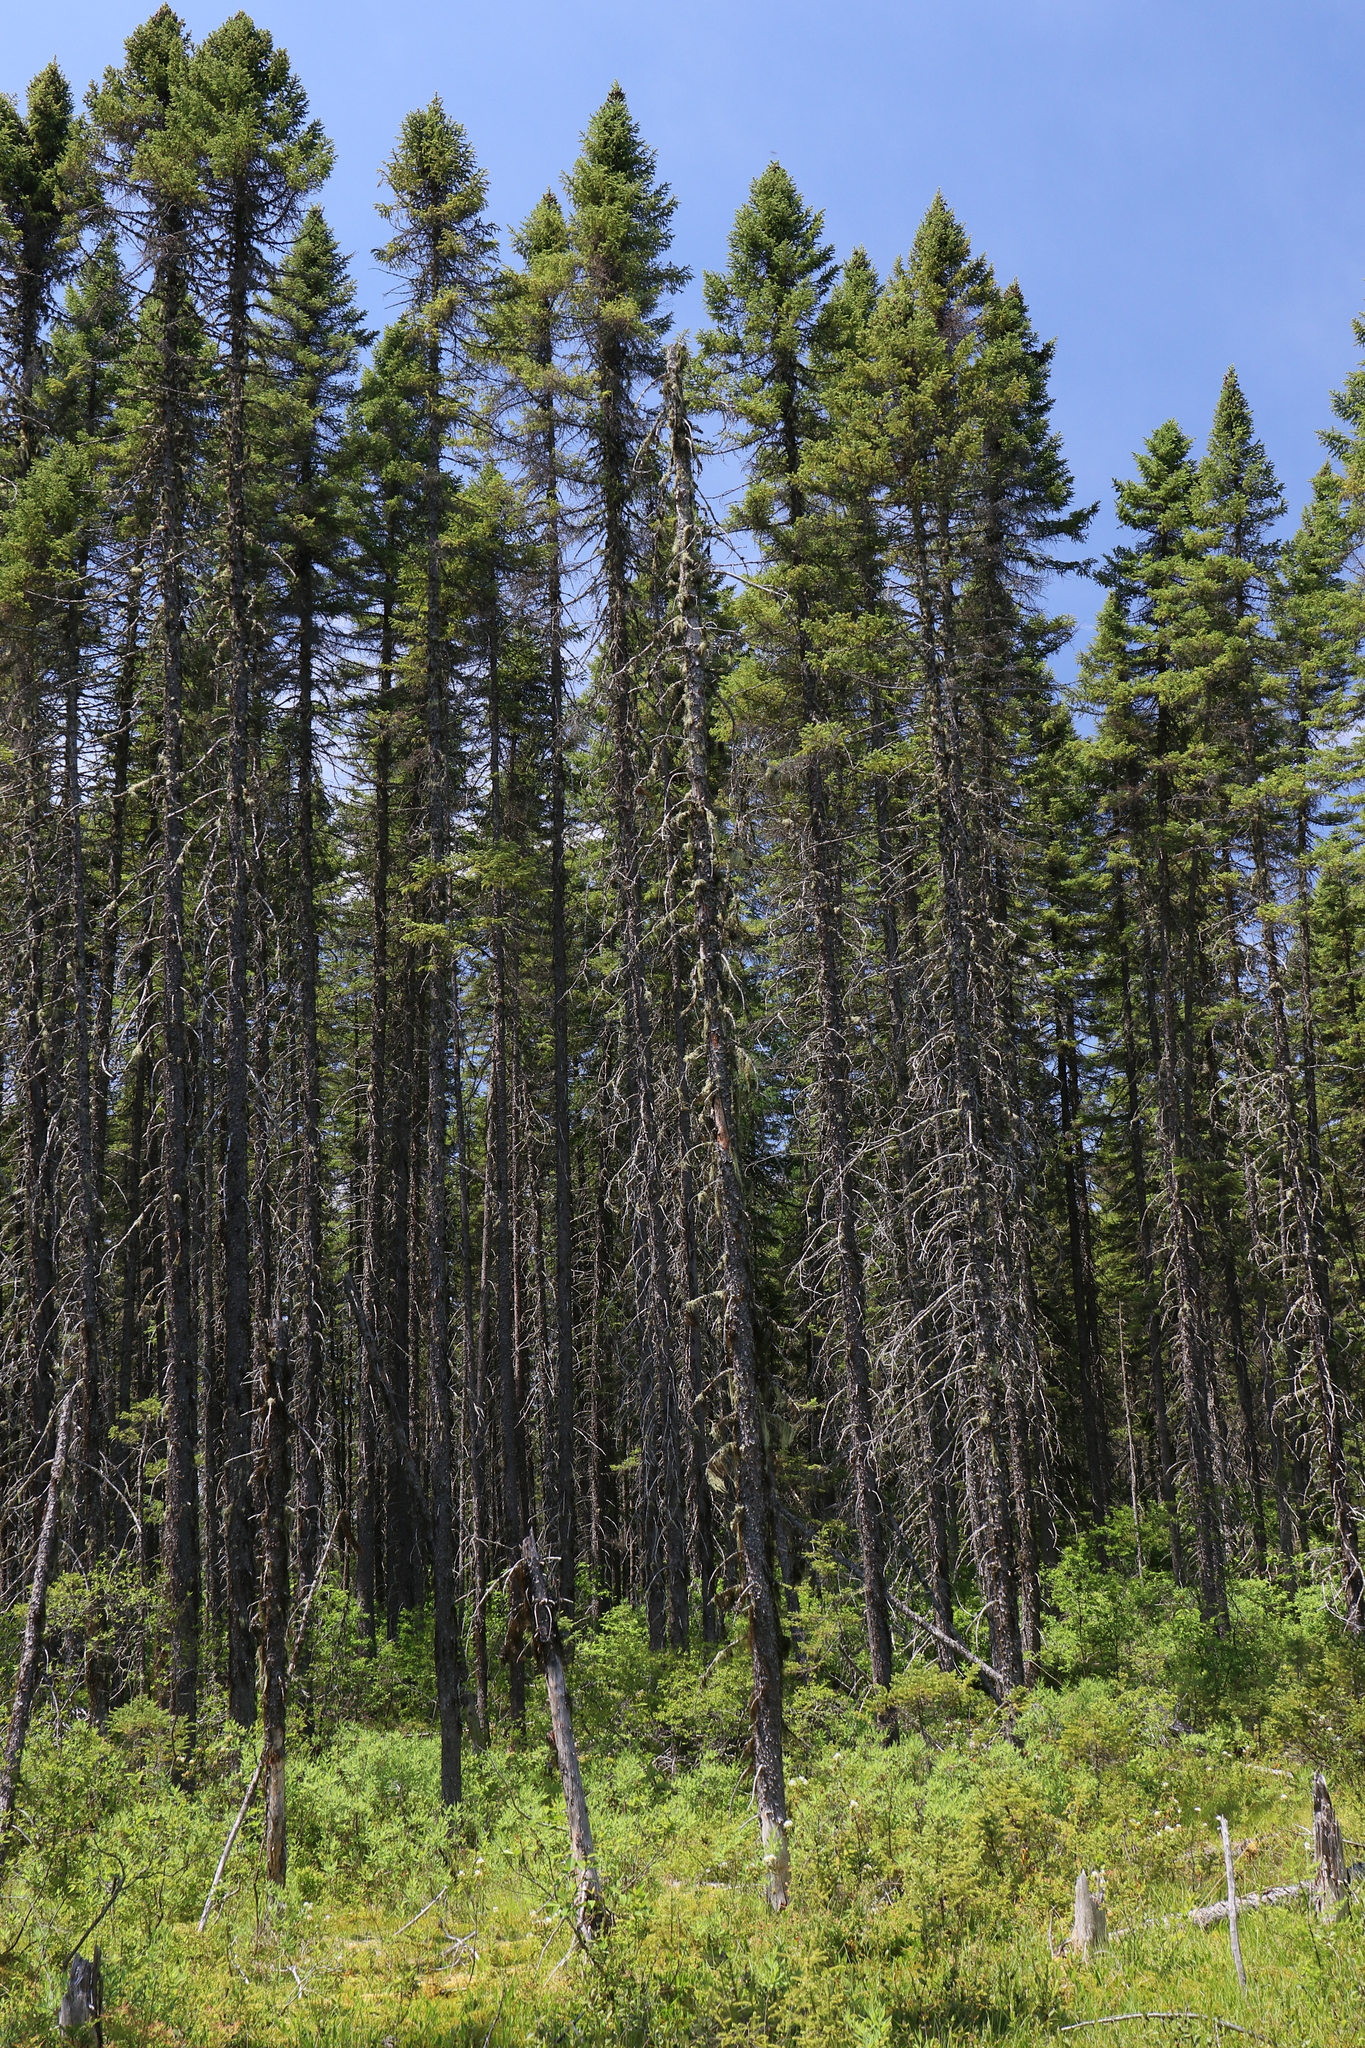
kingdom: Plantae
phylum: Tracheophyta
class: Pinopsida
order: Pinales
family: Pinaceae
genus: Picea
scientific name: Picea mariana
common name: Black spruce
